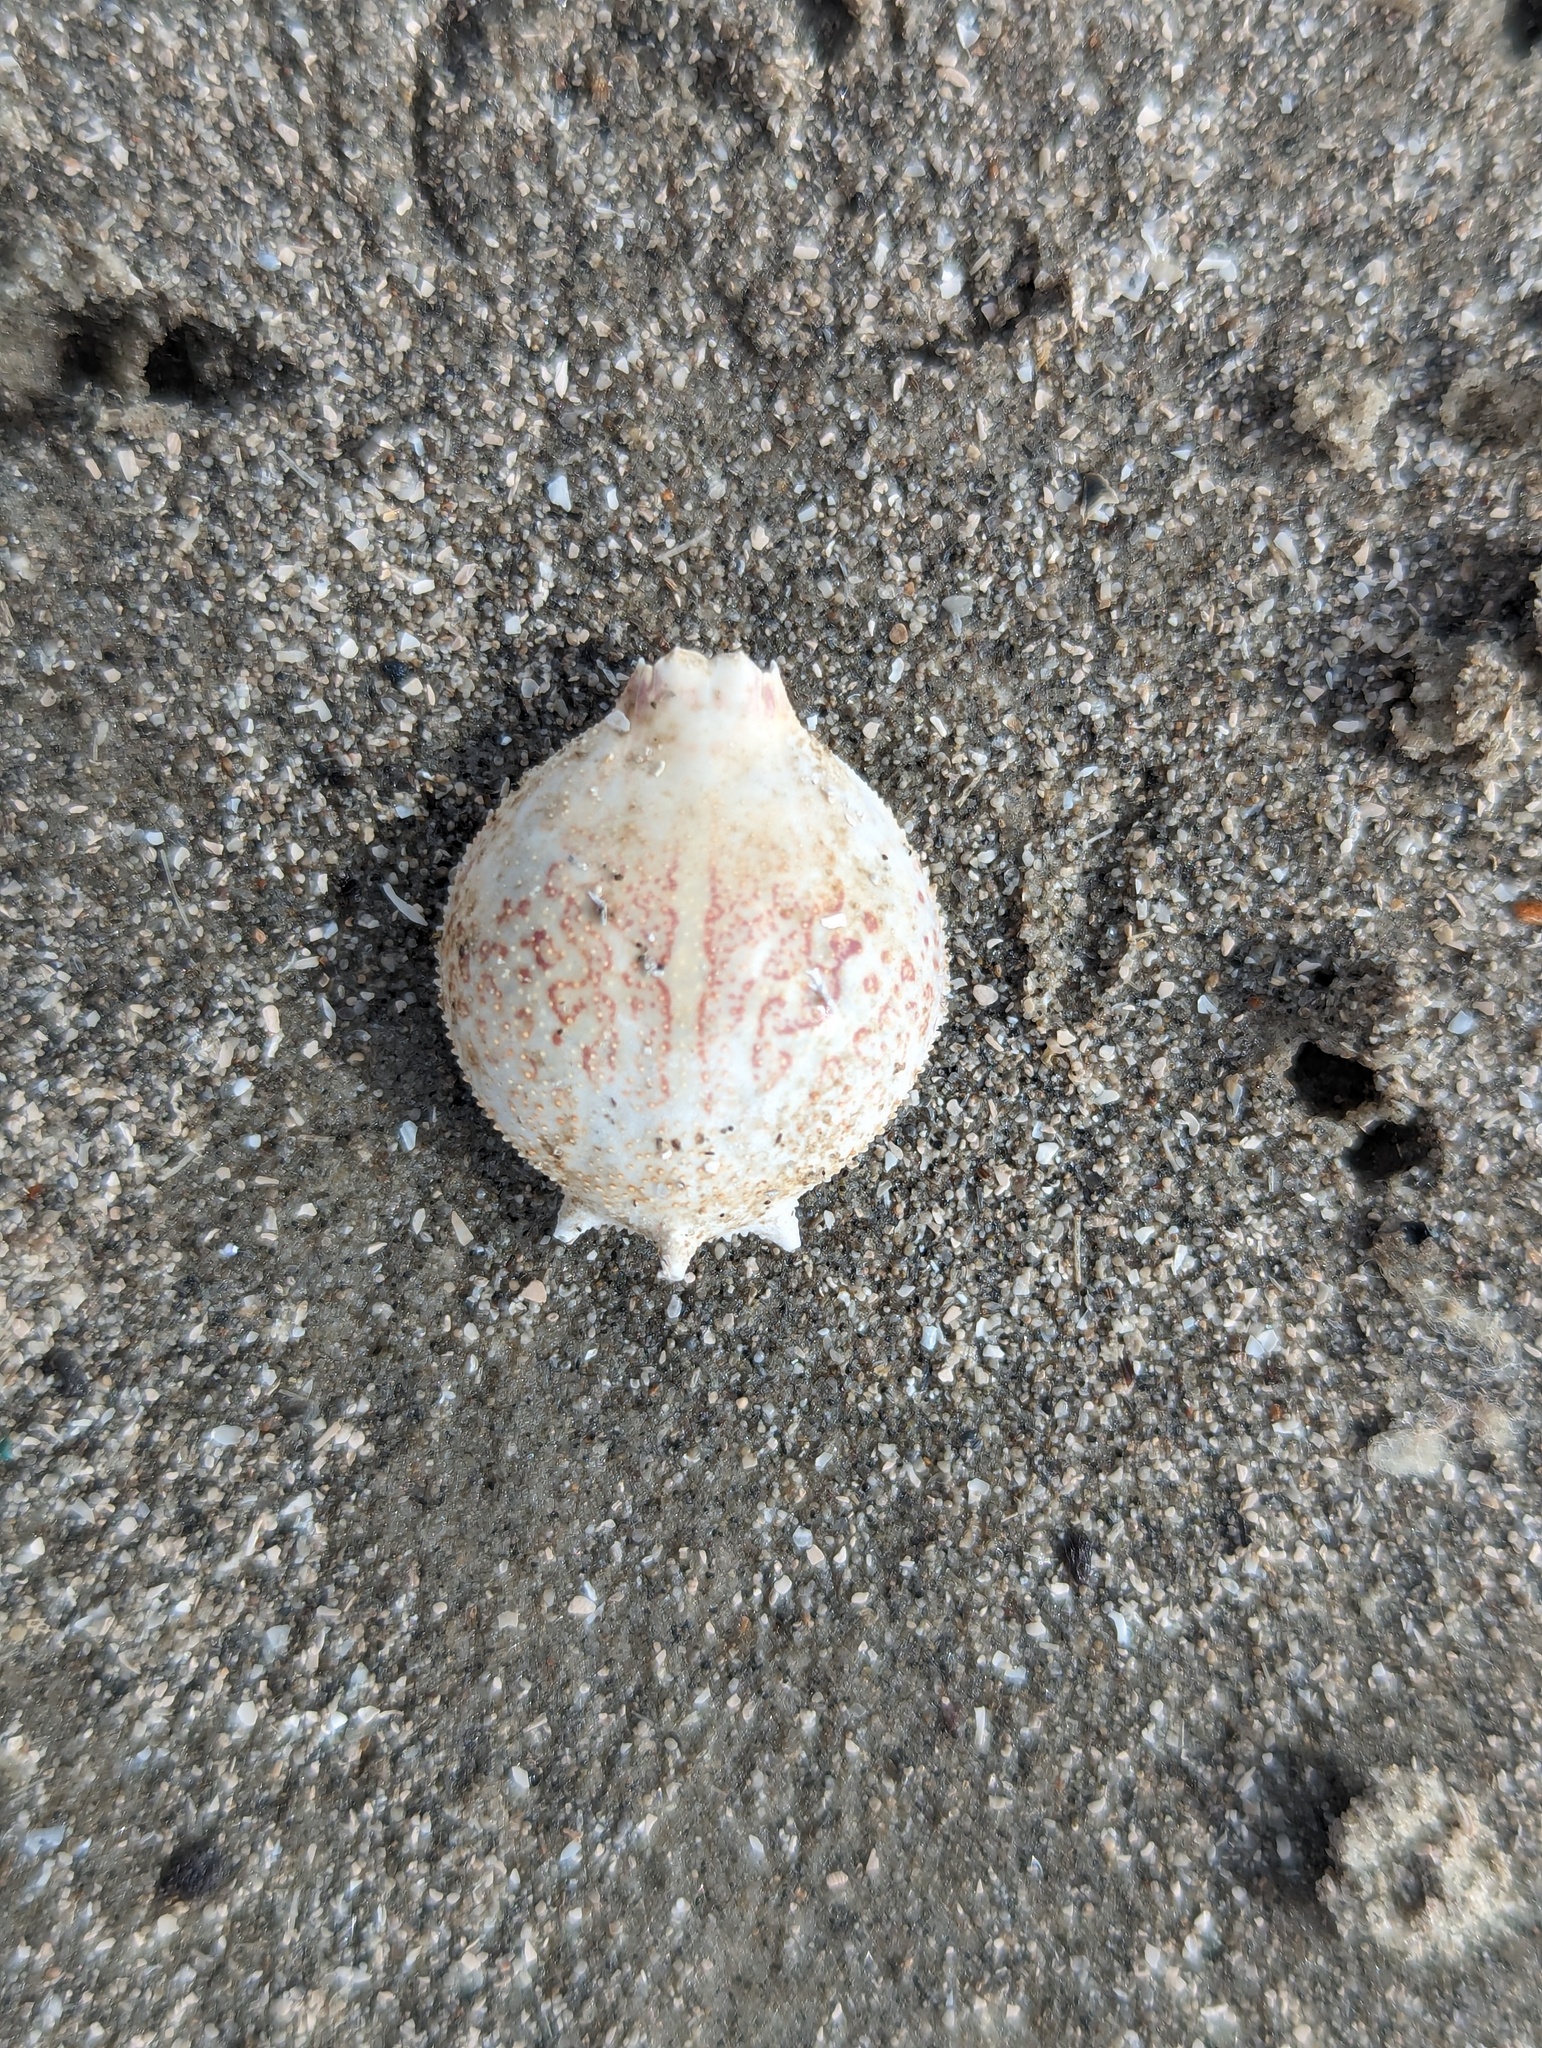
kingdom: Animalia
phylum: Arthropoda
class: Malacostraca
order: Decapoda
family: Leucosiidae
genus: Persephona
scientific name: Persephona aquilonaris
